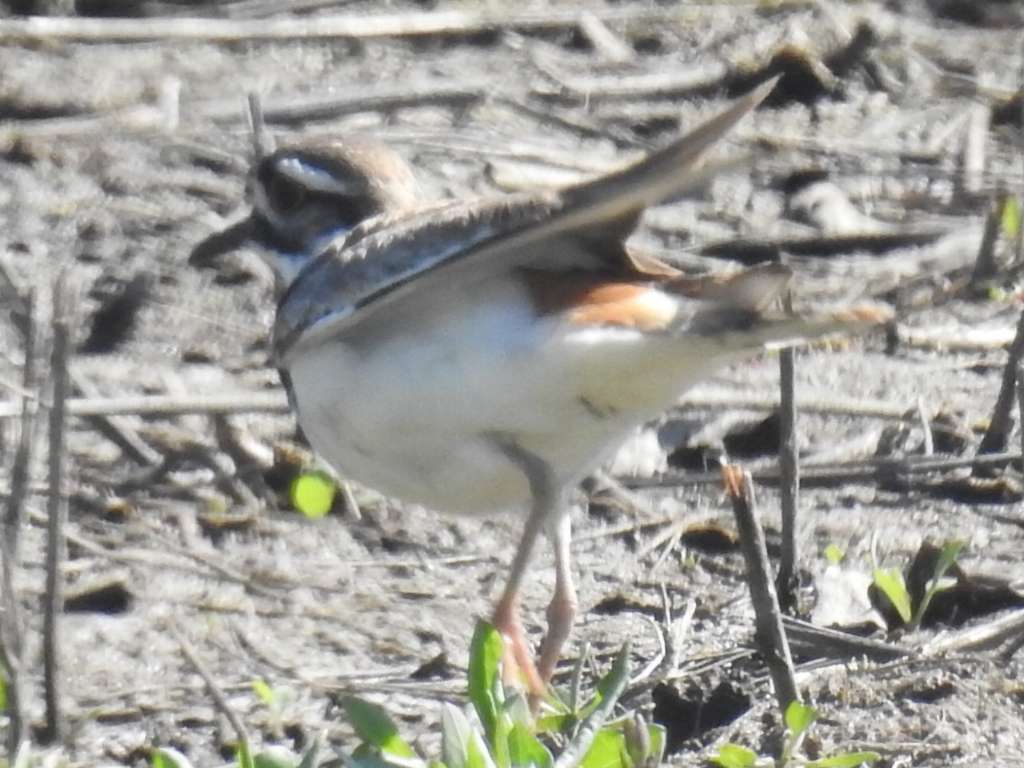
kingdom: Animalia
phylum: Chordata
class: Aves
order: Charadriiformes
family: Charadriidae
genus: Charadrius
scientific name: Charadrius vociferus
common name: Killdeer
